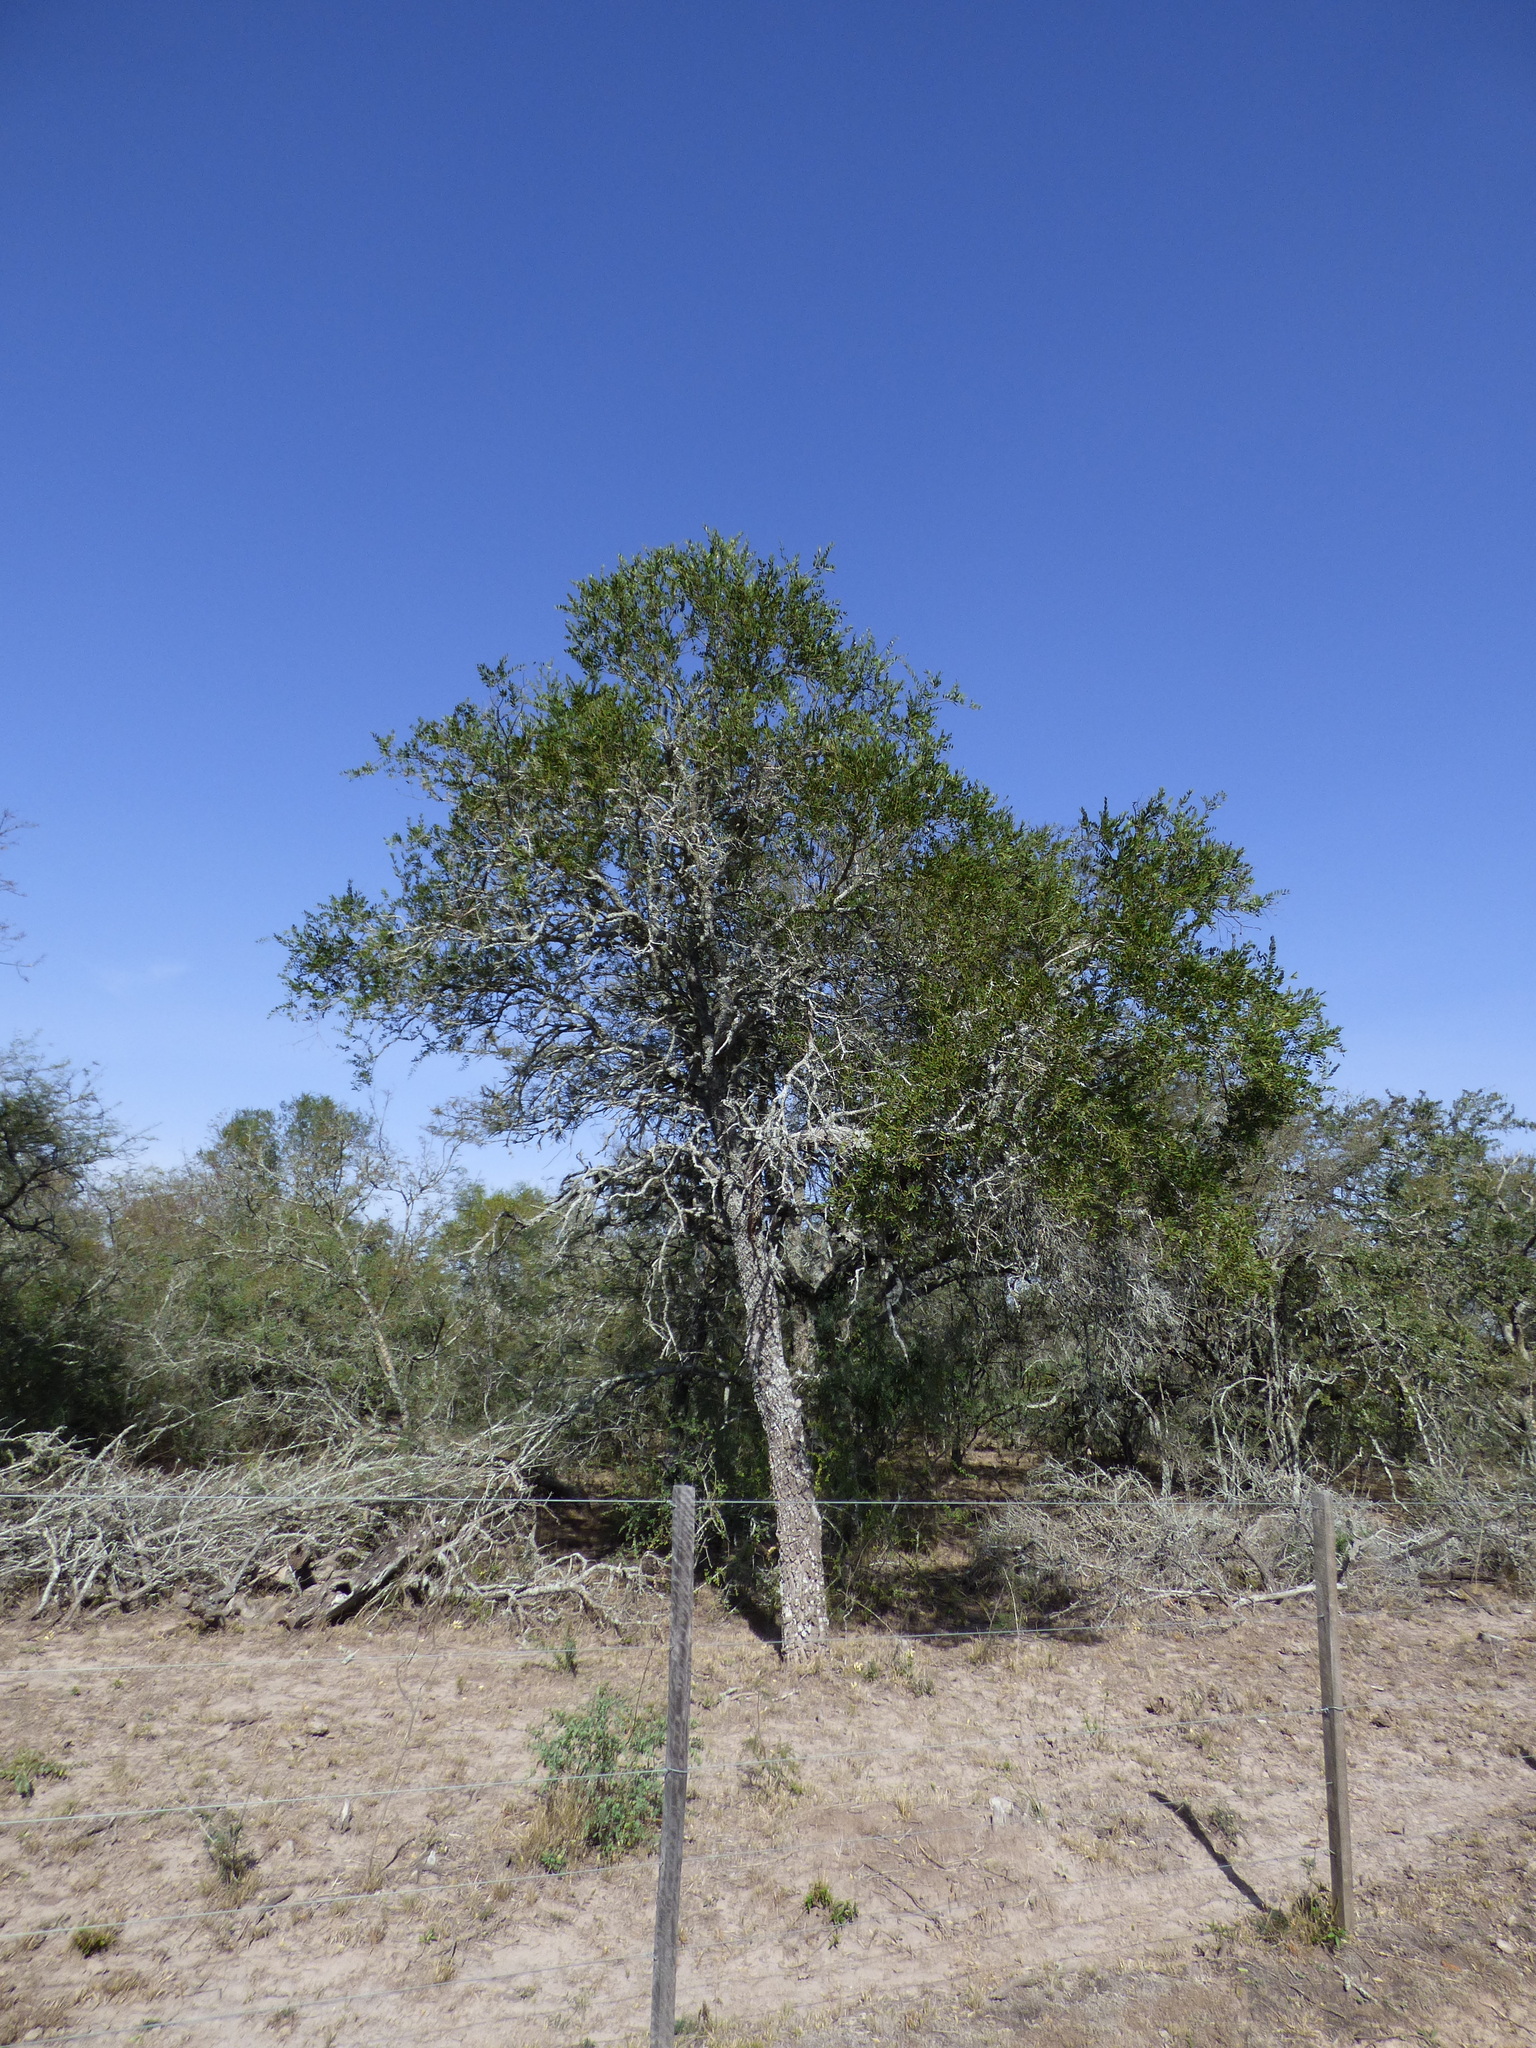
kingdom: Plantae
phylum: Tracheophyta
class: Magnoliopsida
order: Gentianales
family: Apocynaceae
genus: Aspidosperma
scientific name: Aspidosperma quebracho-blanco
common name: White quebracho
